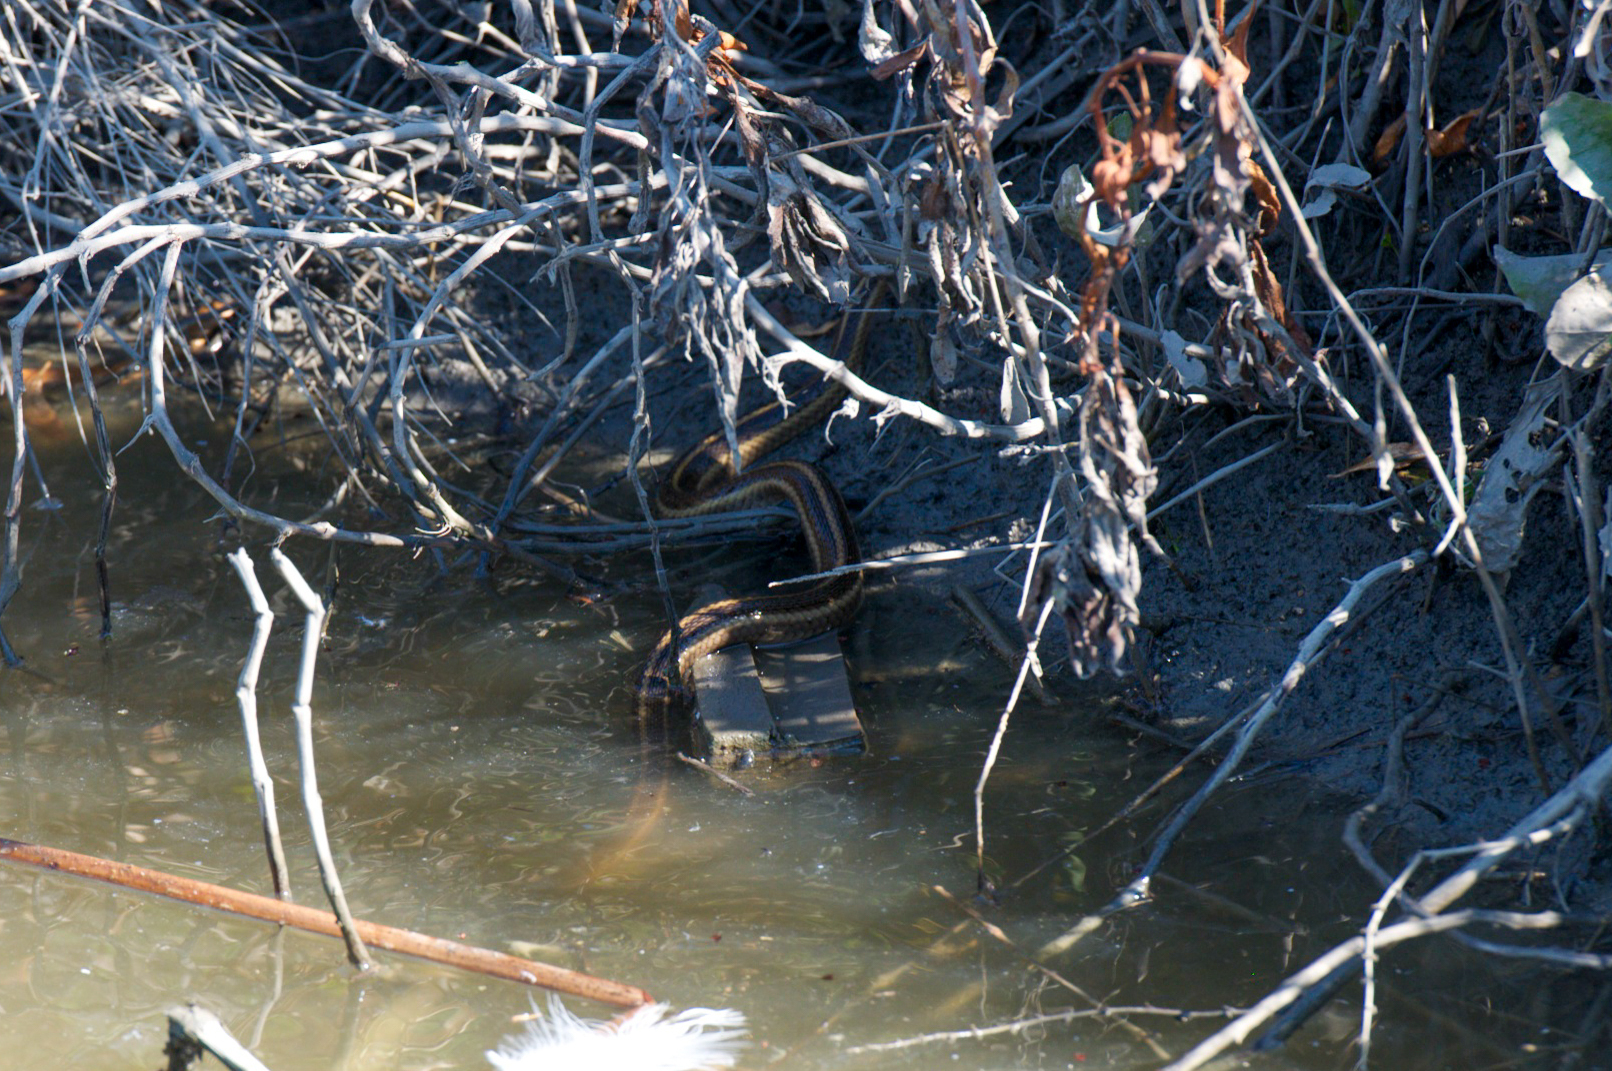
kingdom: Animalia
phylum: Chordata
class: Squamata
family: Colubridae
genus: Thamnophis
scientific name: Thamnophis gigas
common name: Giant garter snake
